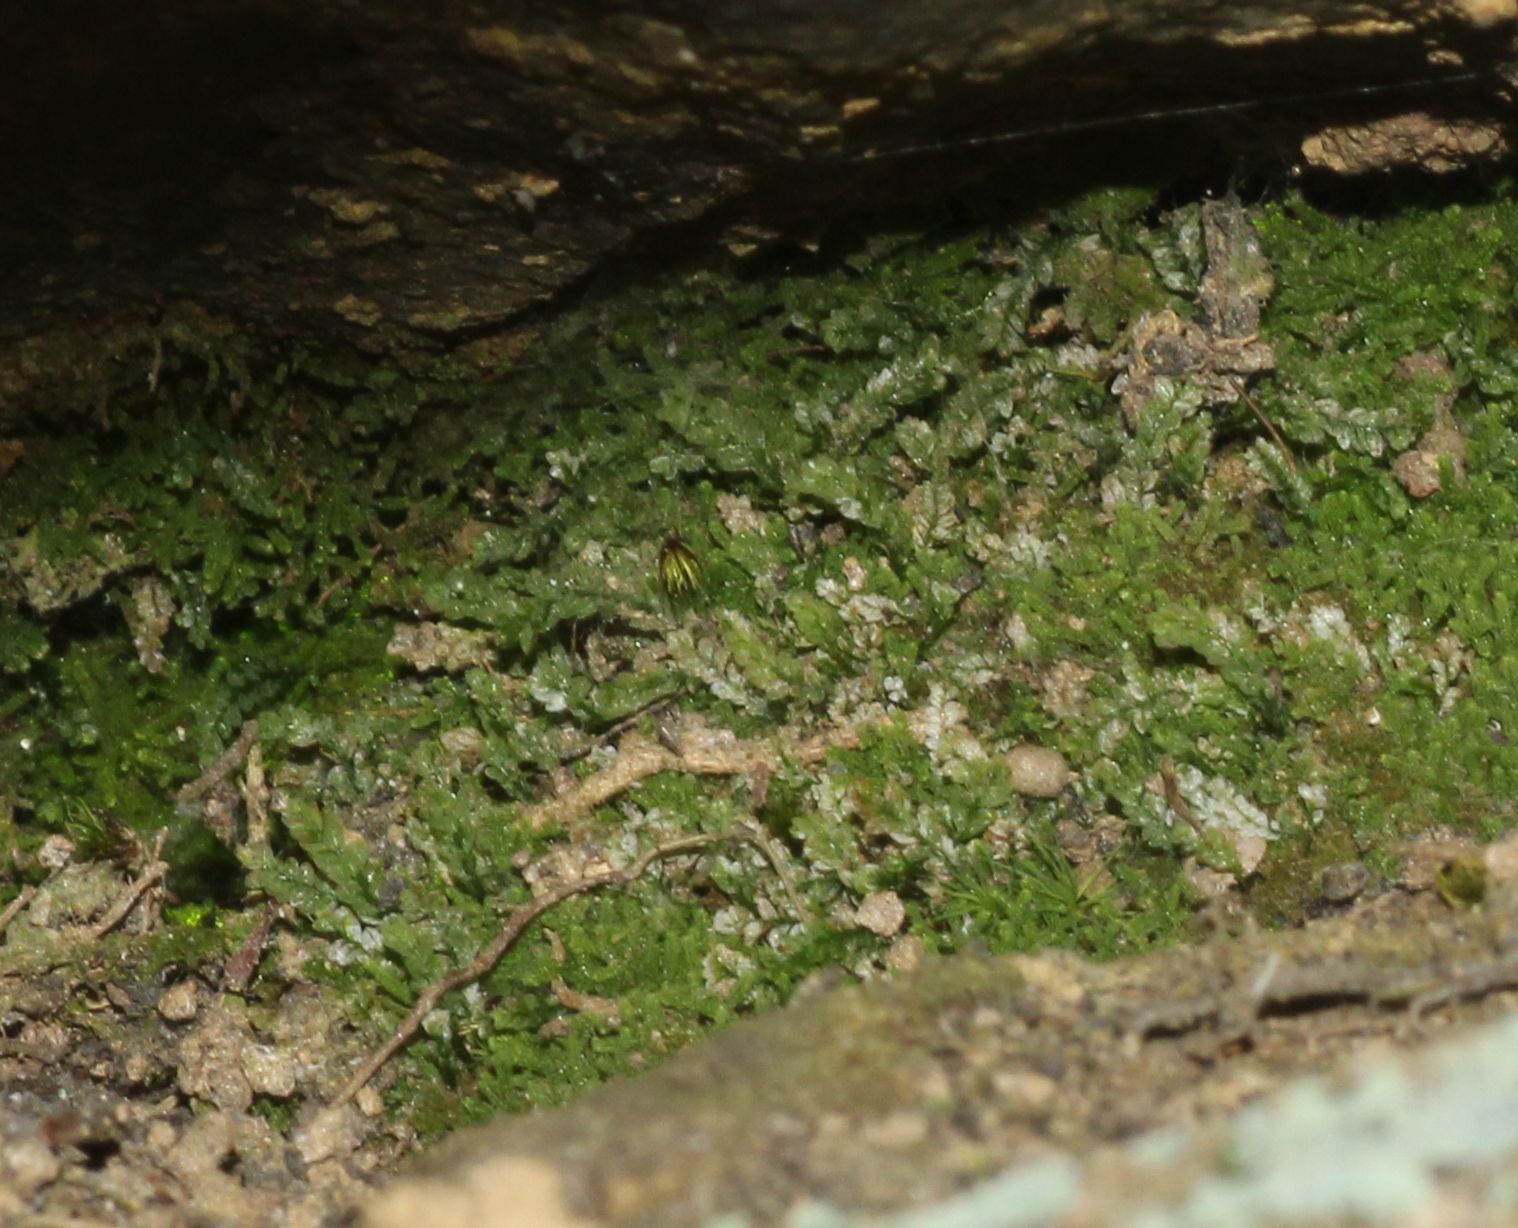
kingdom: Plantae
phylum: Bryophyta
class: Bryopsida
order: Pottiales
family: Mitteniaceae
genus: Mittenia
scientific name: Mittenia plumula
